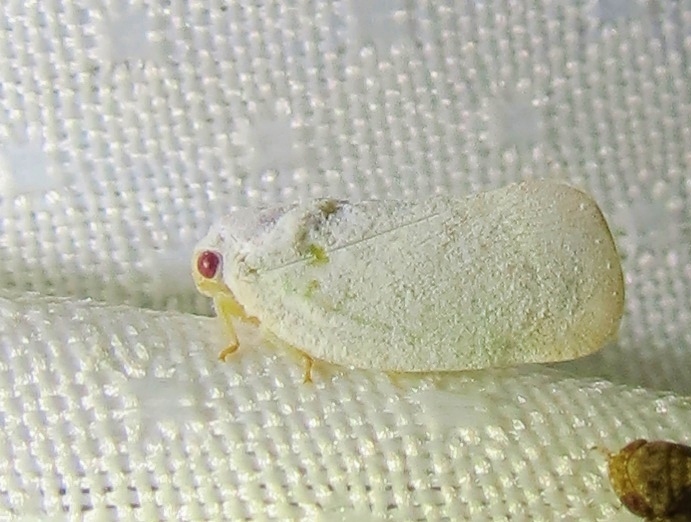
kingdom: Animalia
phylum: Arthropoda
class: Insecta
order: Hemiptera
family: Flatidae
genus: Flatormenis
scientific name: Flatormenis saucia
